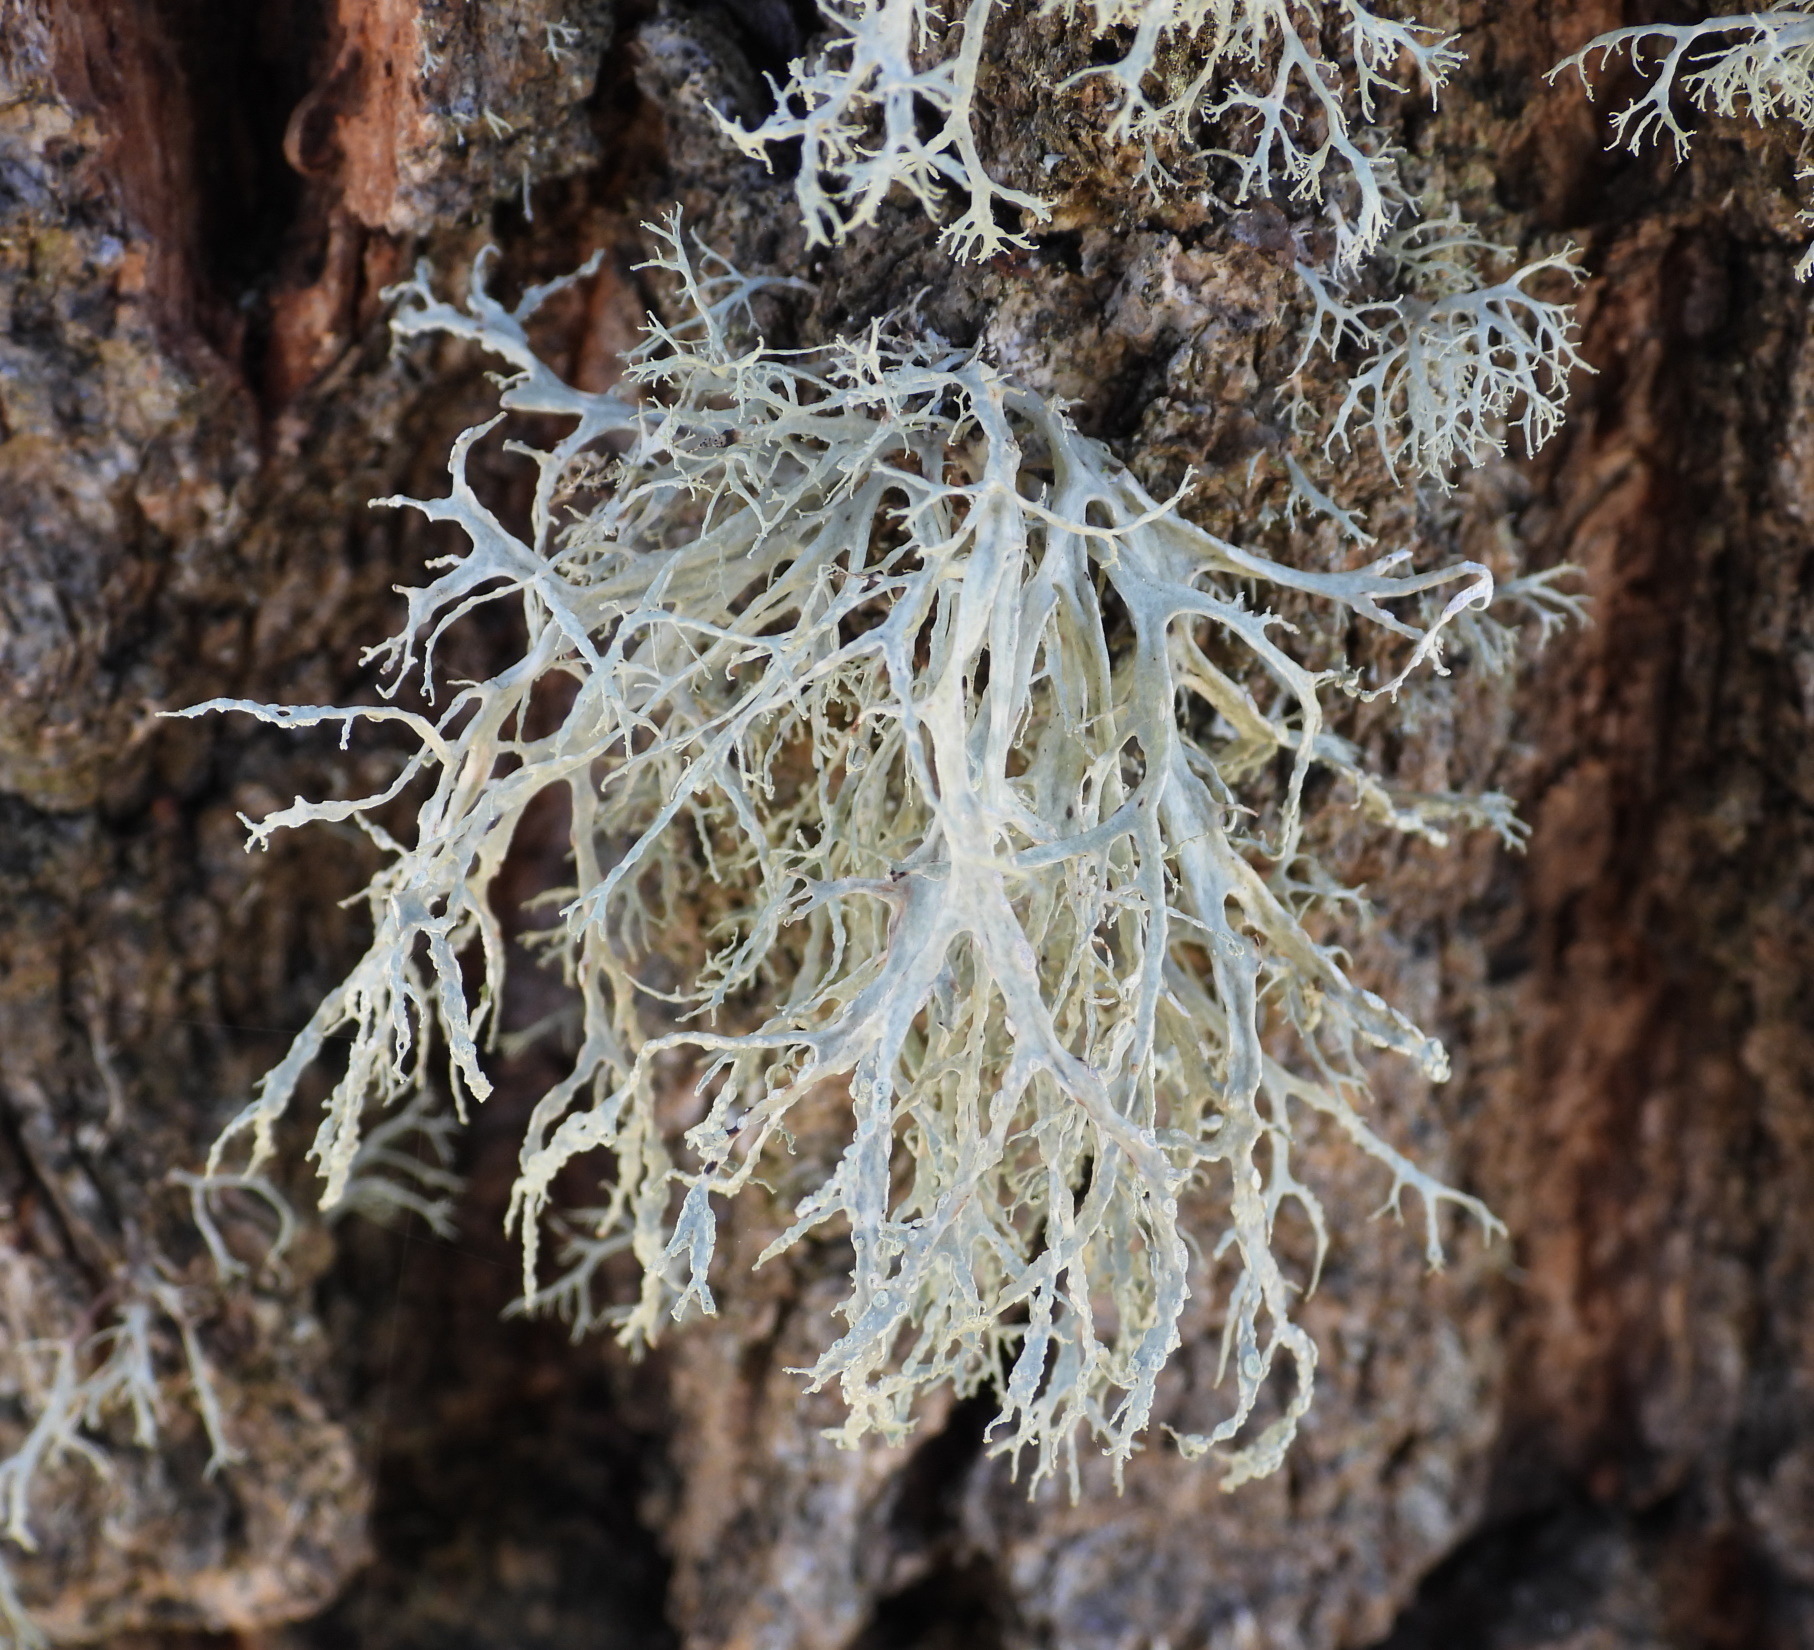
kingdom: Fungi
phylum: Ascomycota
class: Lecanoromycetes
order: Lecanorales
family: Ramalinaceae
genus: Ramalina
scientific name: Ramalina farinacea
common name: Farinose cartilage lichen
